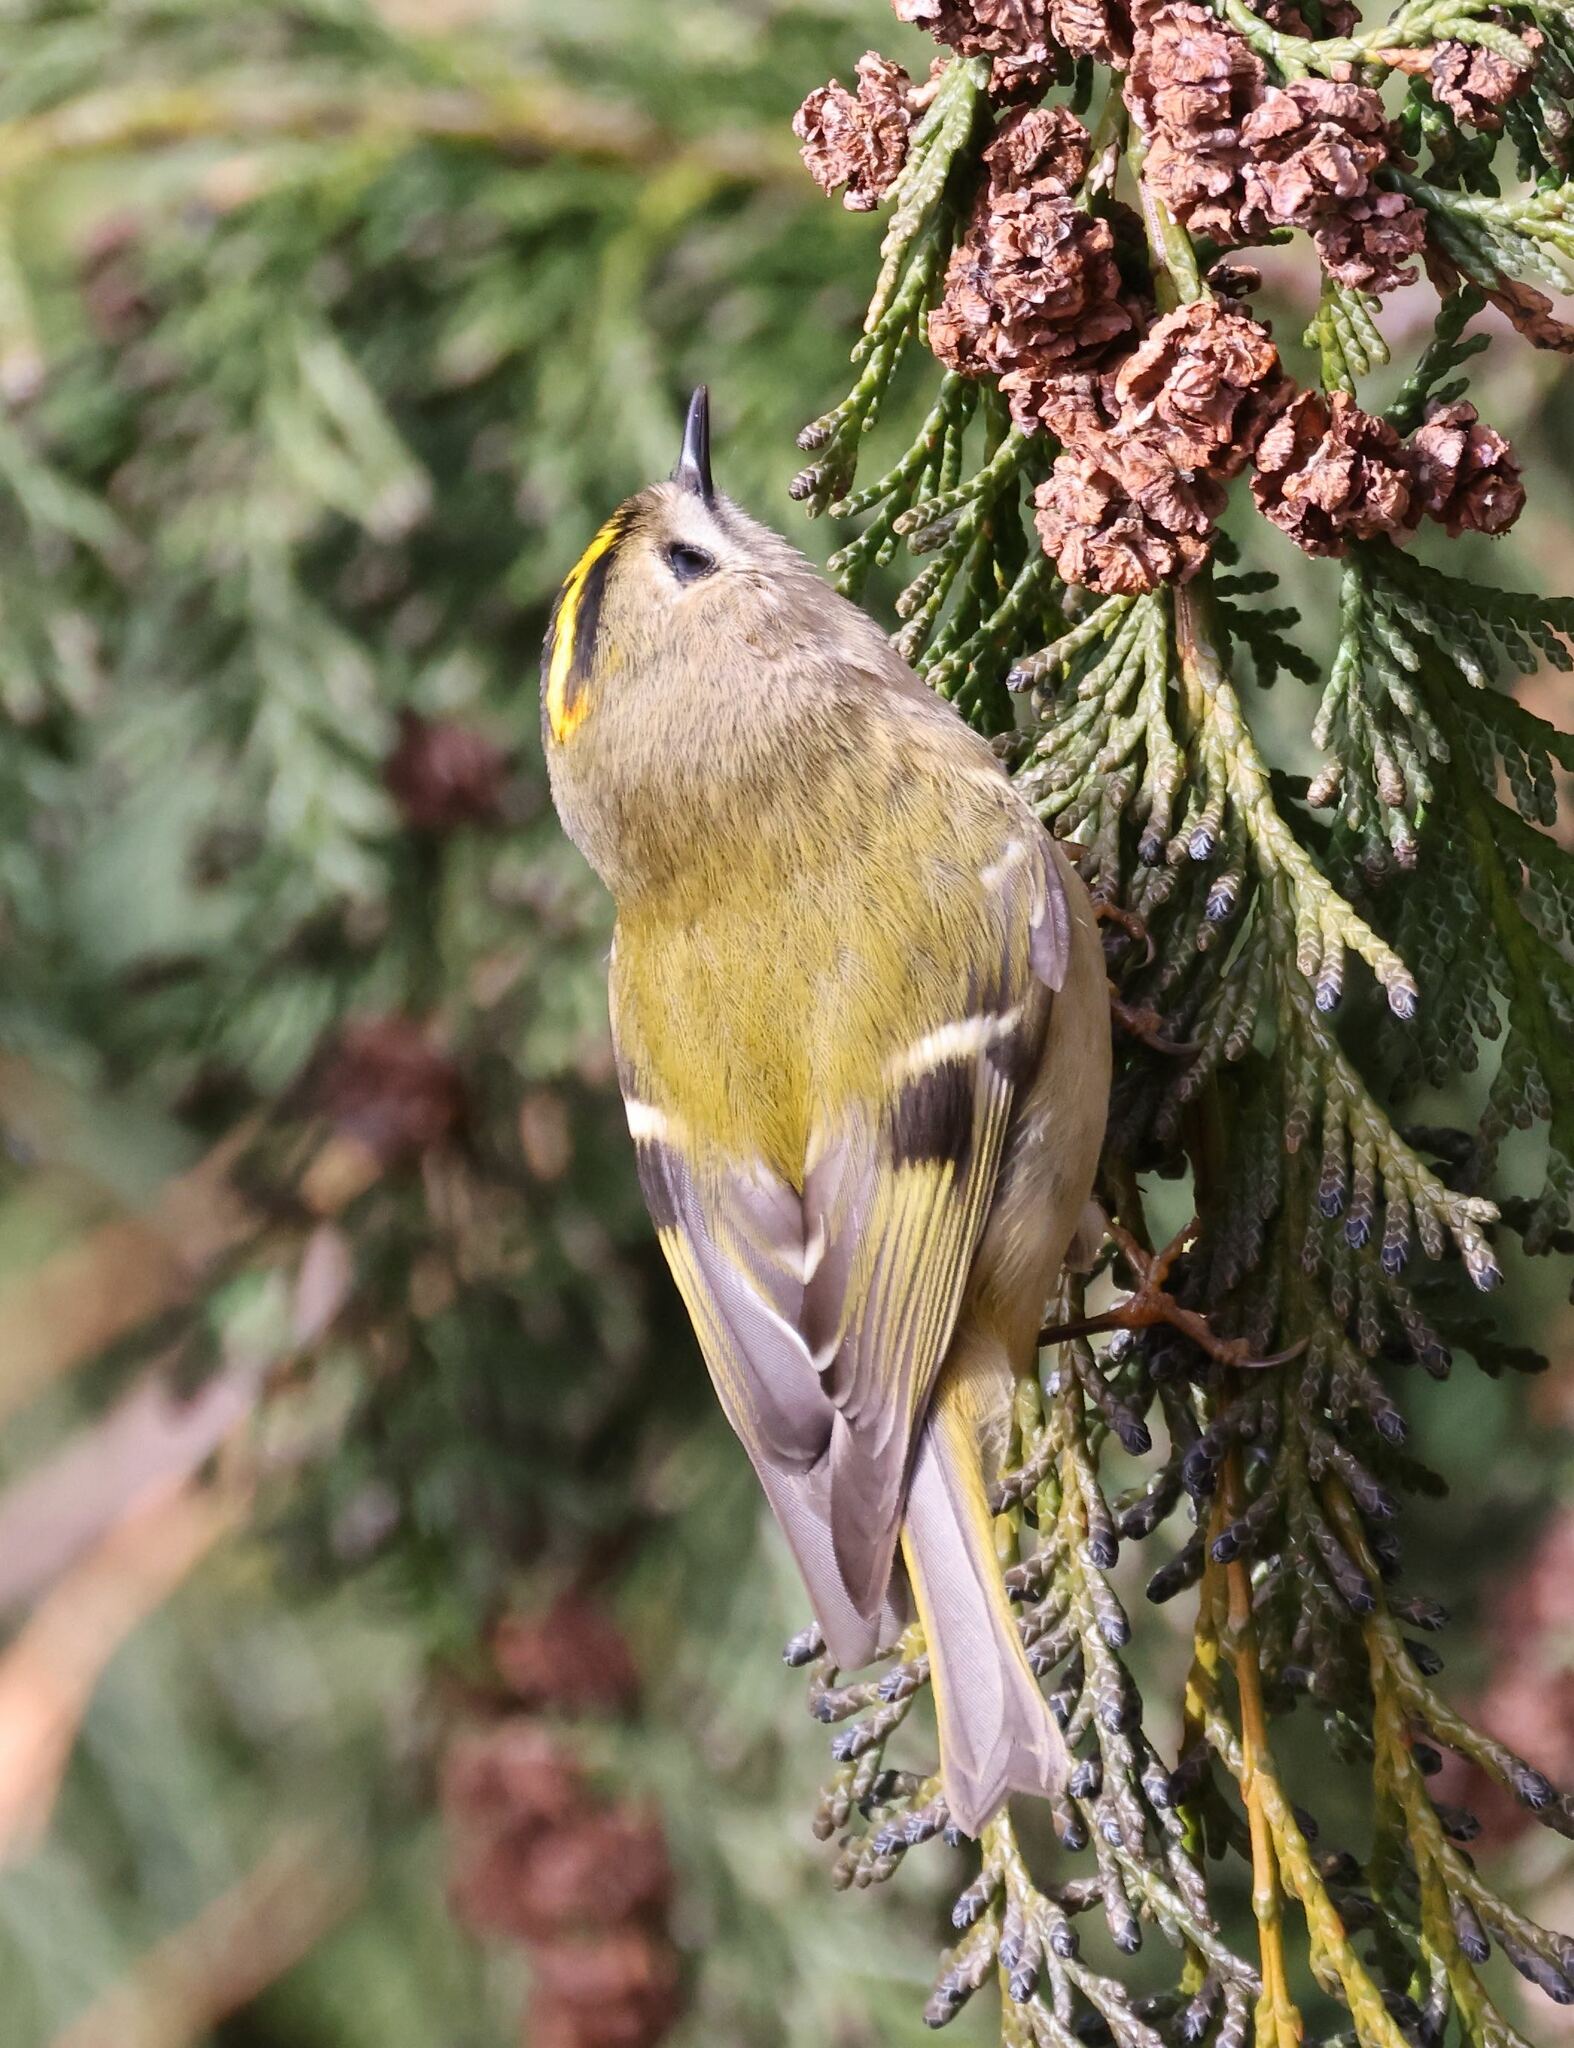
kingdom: Animalia
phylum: Chordata
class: Aves
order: Passeriformes
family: Regulidae
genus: Regulus
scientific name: Regulus regulus
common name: Goldcrest
